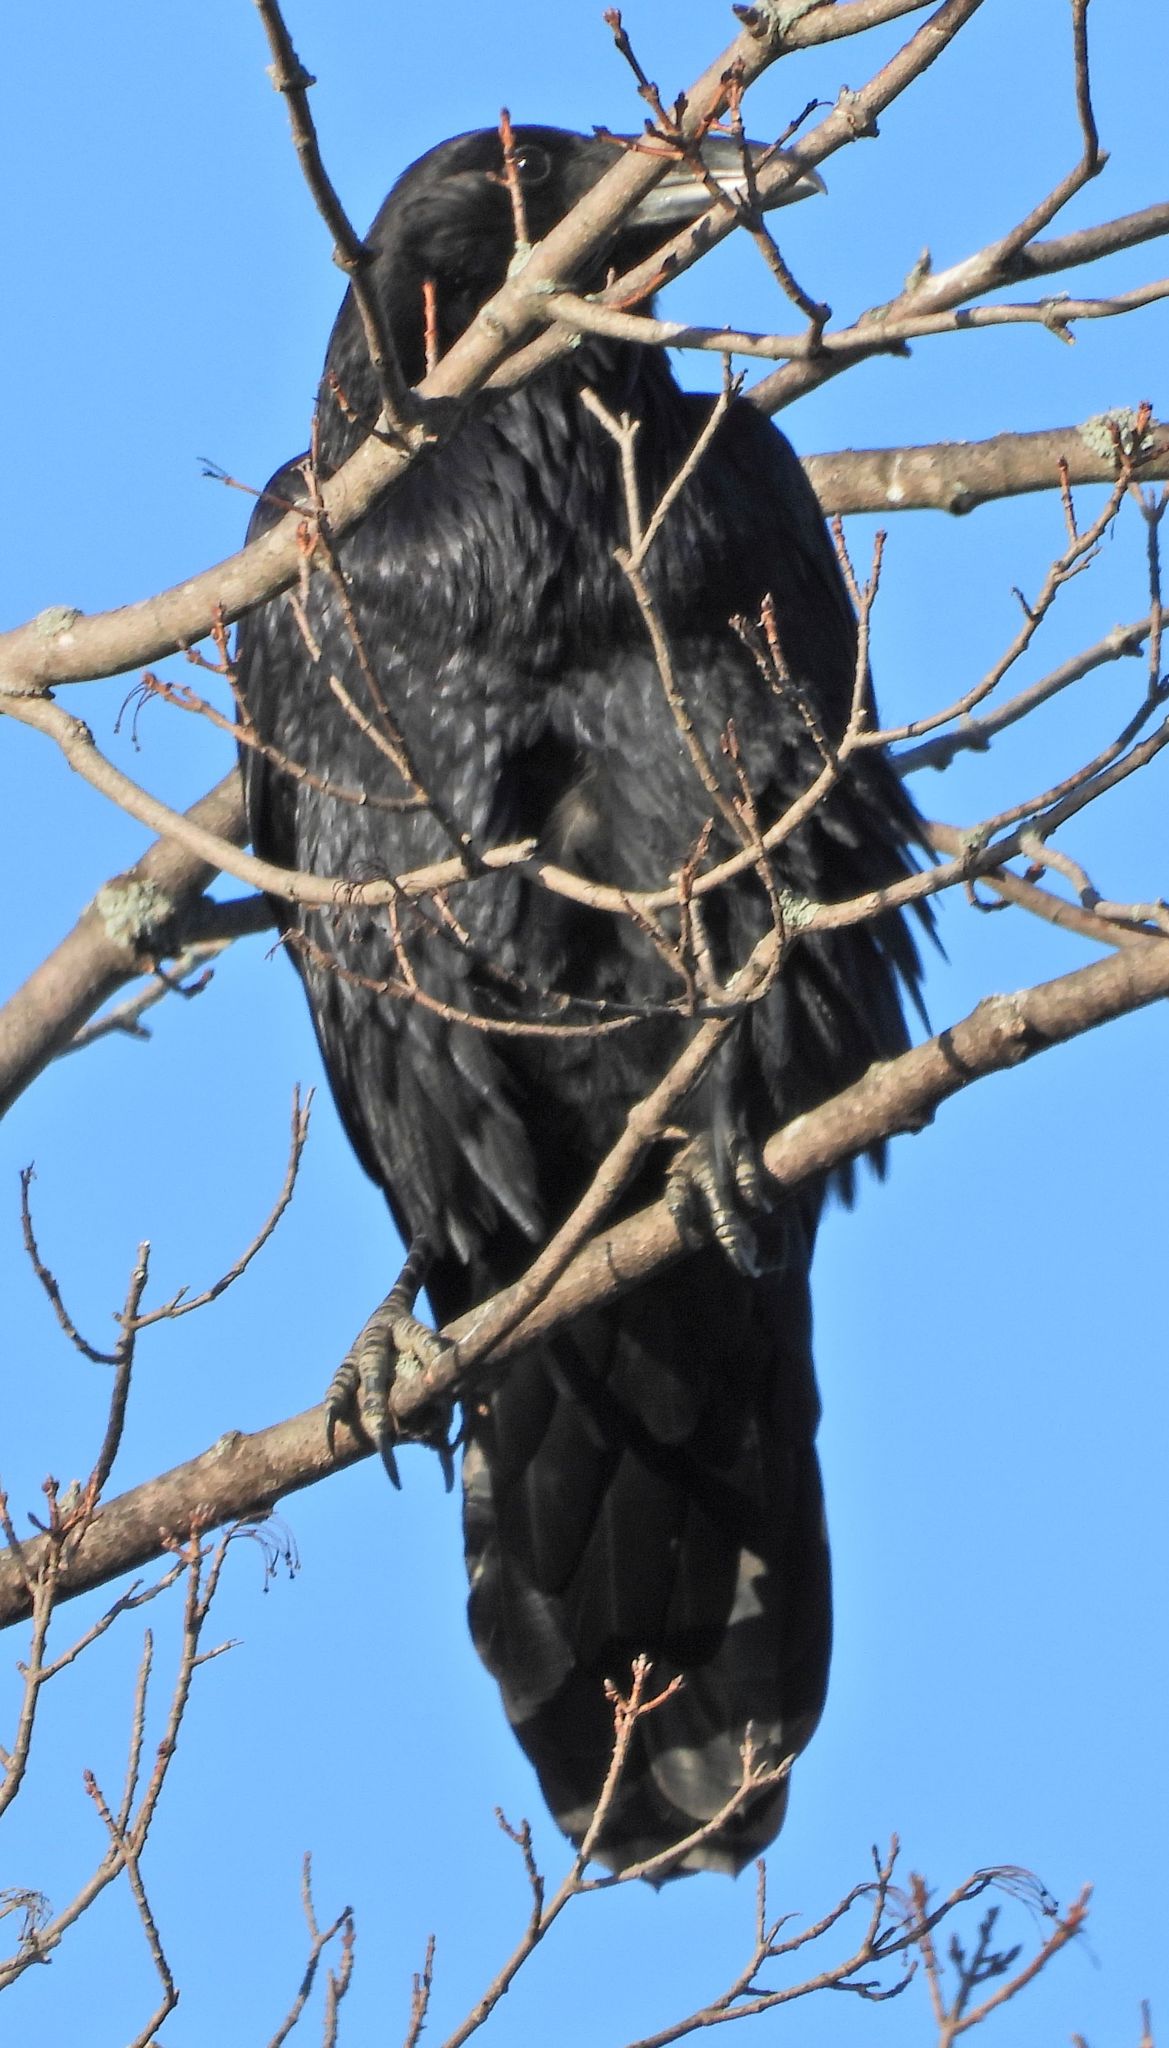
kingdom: Animalia
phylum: Chordata
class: Aves
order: Passeriformes
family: Corvidae
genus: Corvus
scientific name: Corvus corax
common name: Common raven
